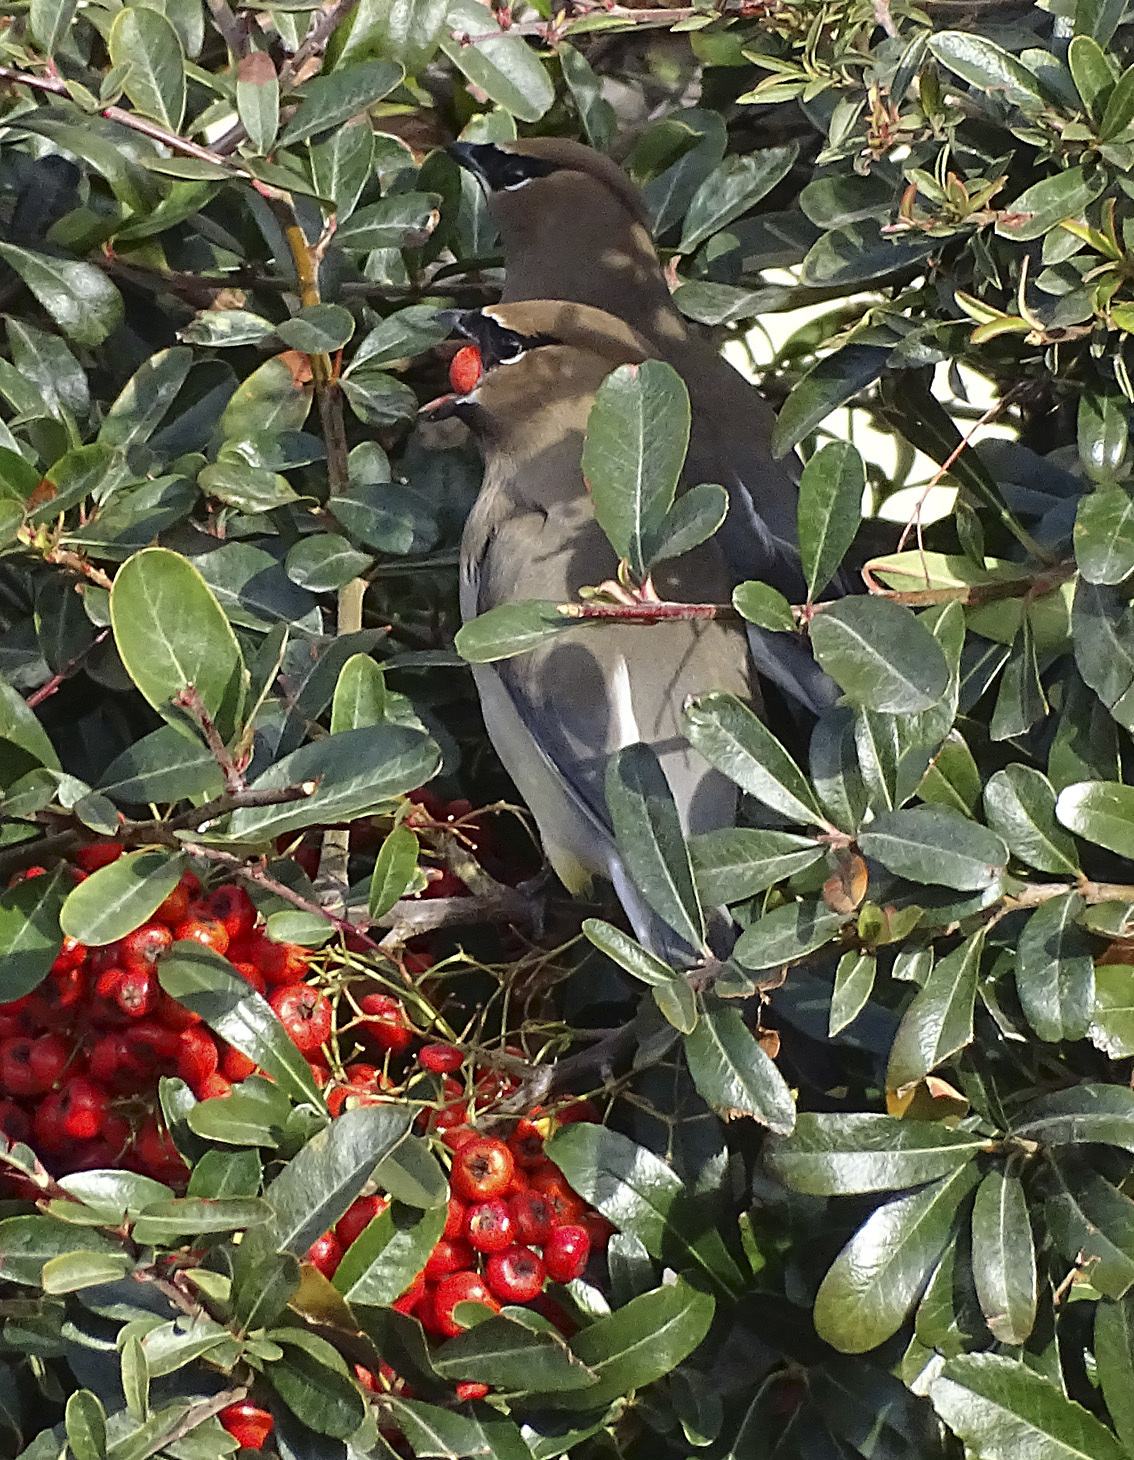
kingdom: Animalia
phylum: Chordata
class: Aves
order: Passeriformes
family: Bombycillidae
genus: Bombycilla
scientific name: Bombycilla cedrorum
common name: Cedar waxwing
